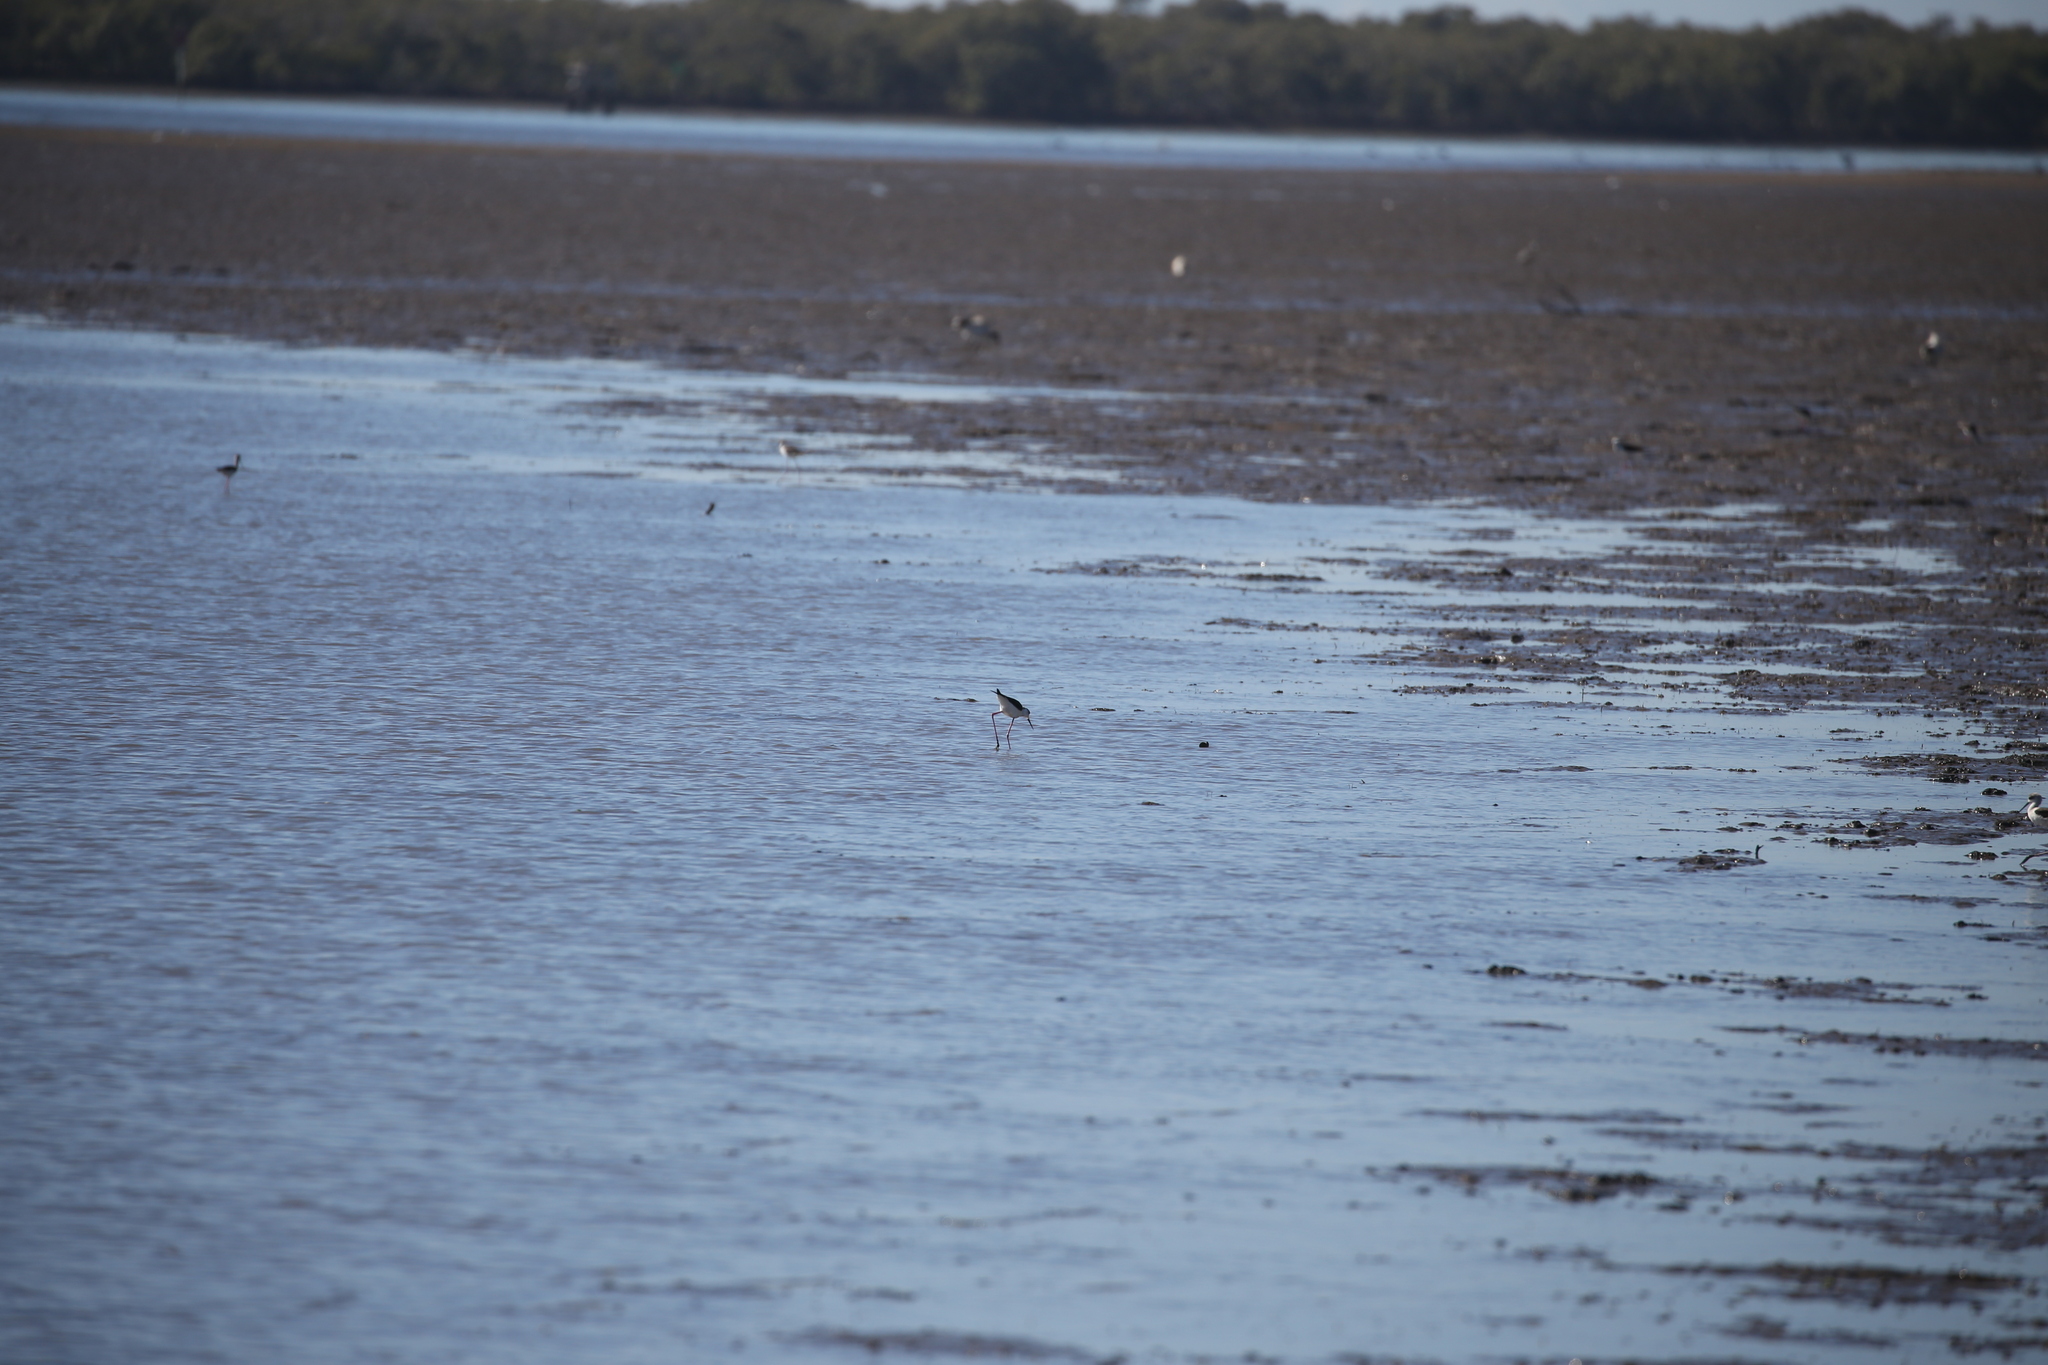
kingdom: Animalia
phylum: Chordata
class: Aves
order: Charadriiformes
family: Recurvirostridae
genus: Himantopus
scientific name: Himantopus leucocephalus
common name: White-headed stilt
